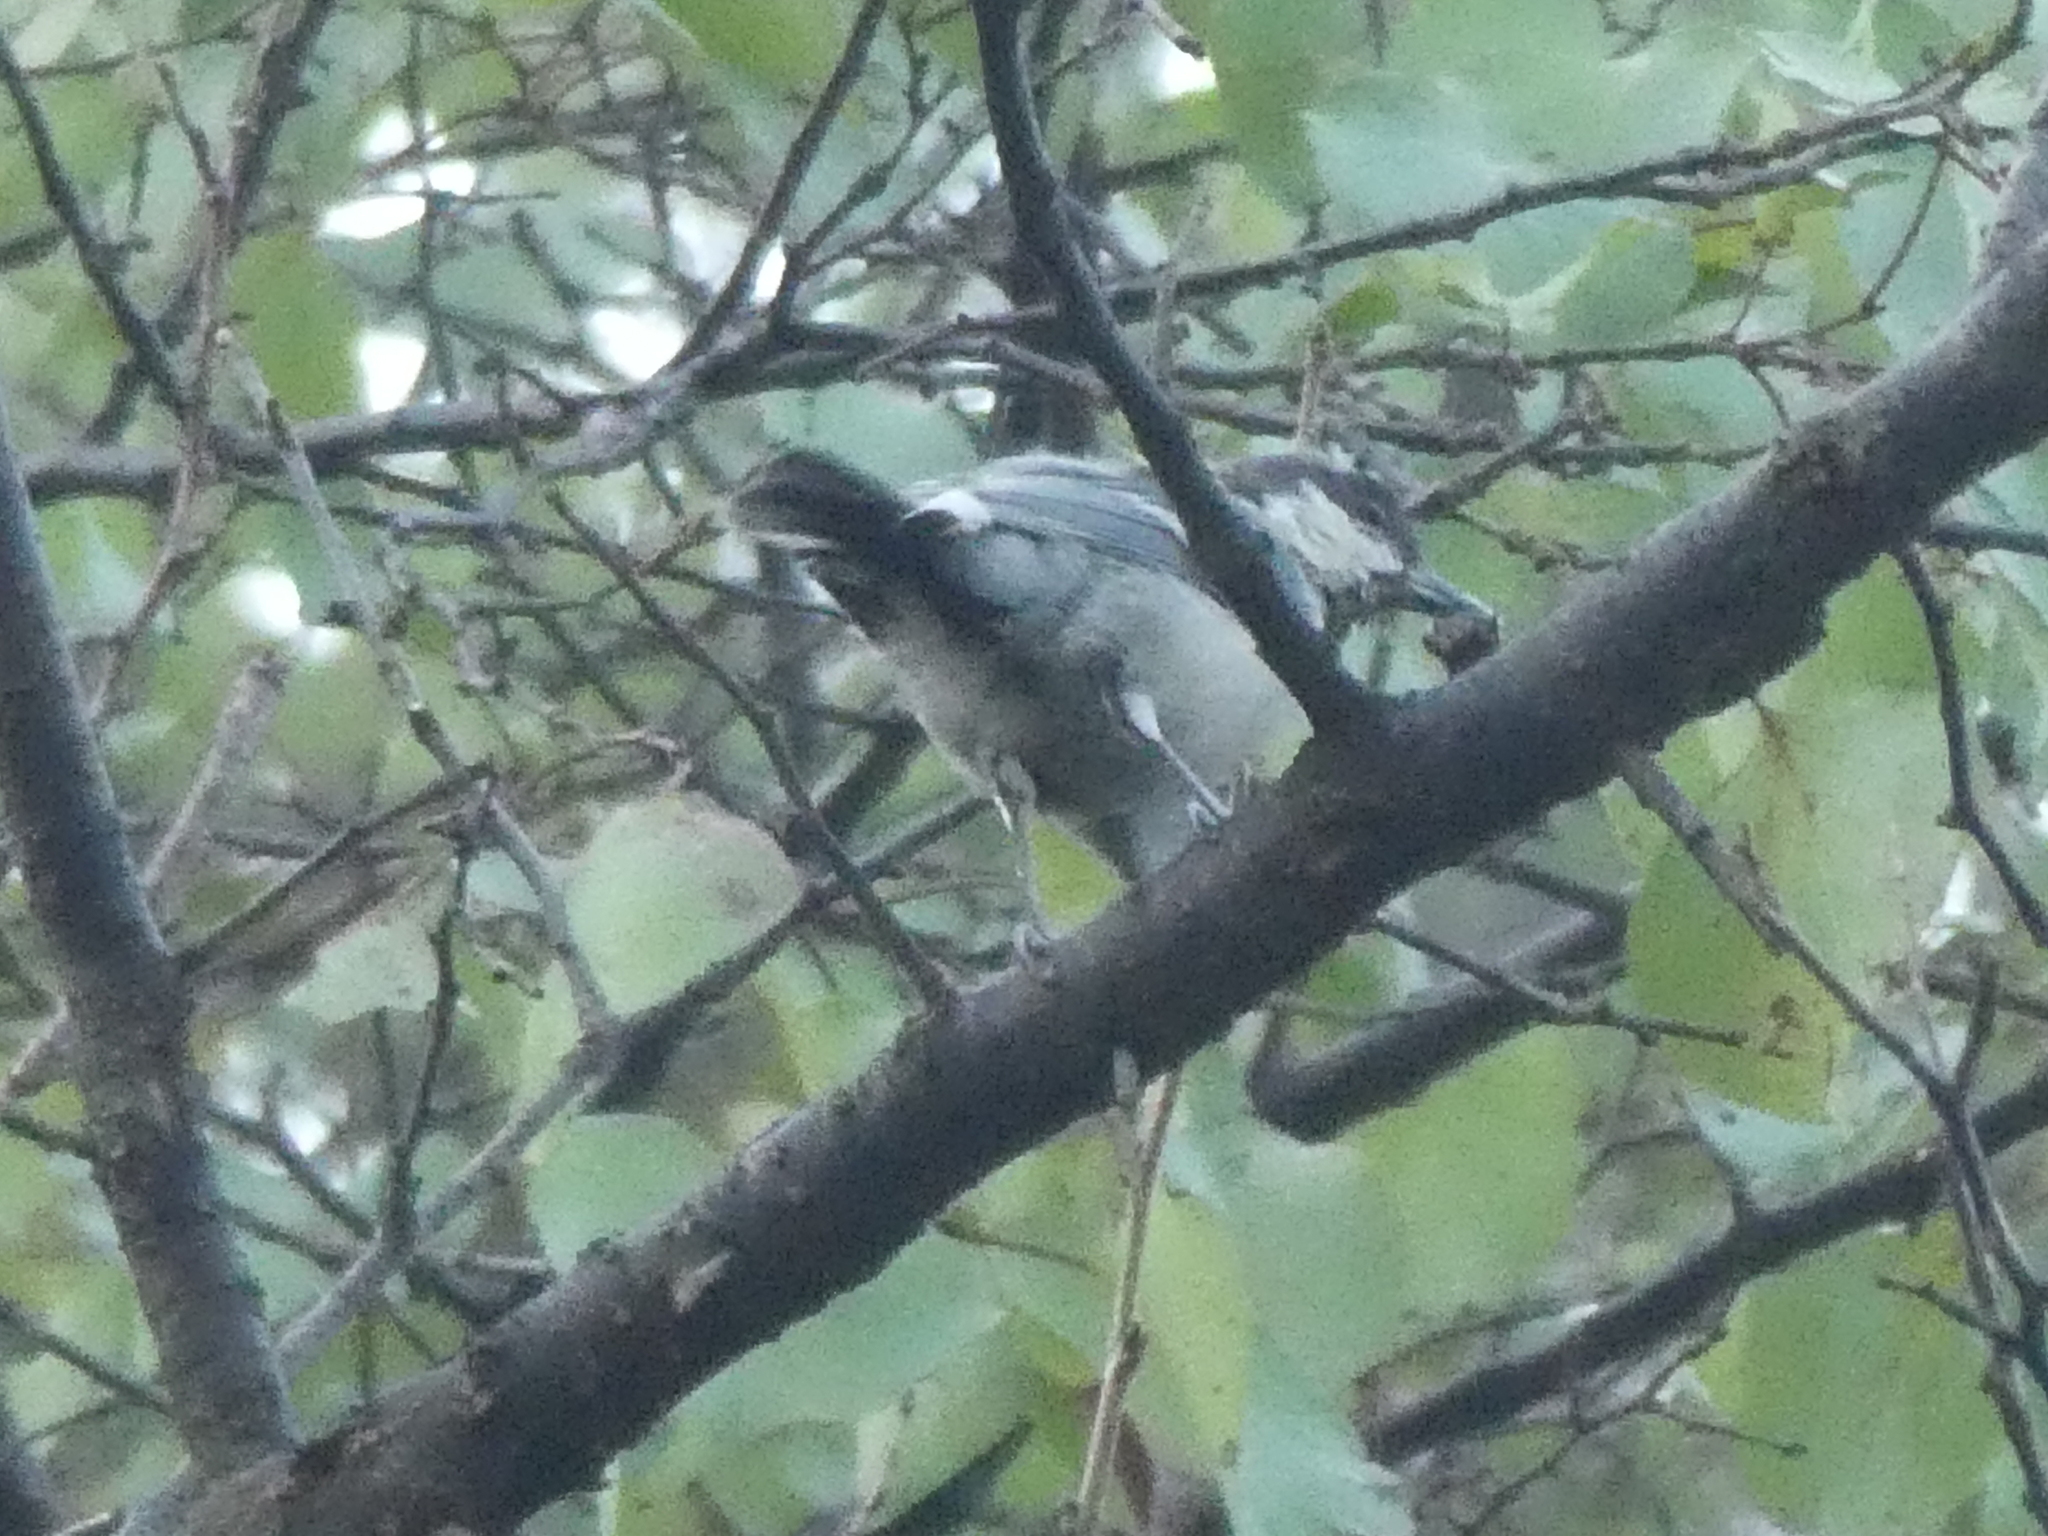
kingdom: Animalia
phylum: Chordata
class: Aves
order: Passeriformes
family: Paridae
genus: Parus
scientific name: Parus minor
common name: Japanese tit
